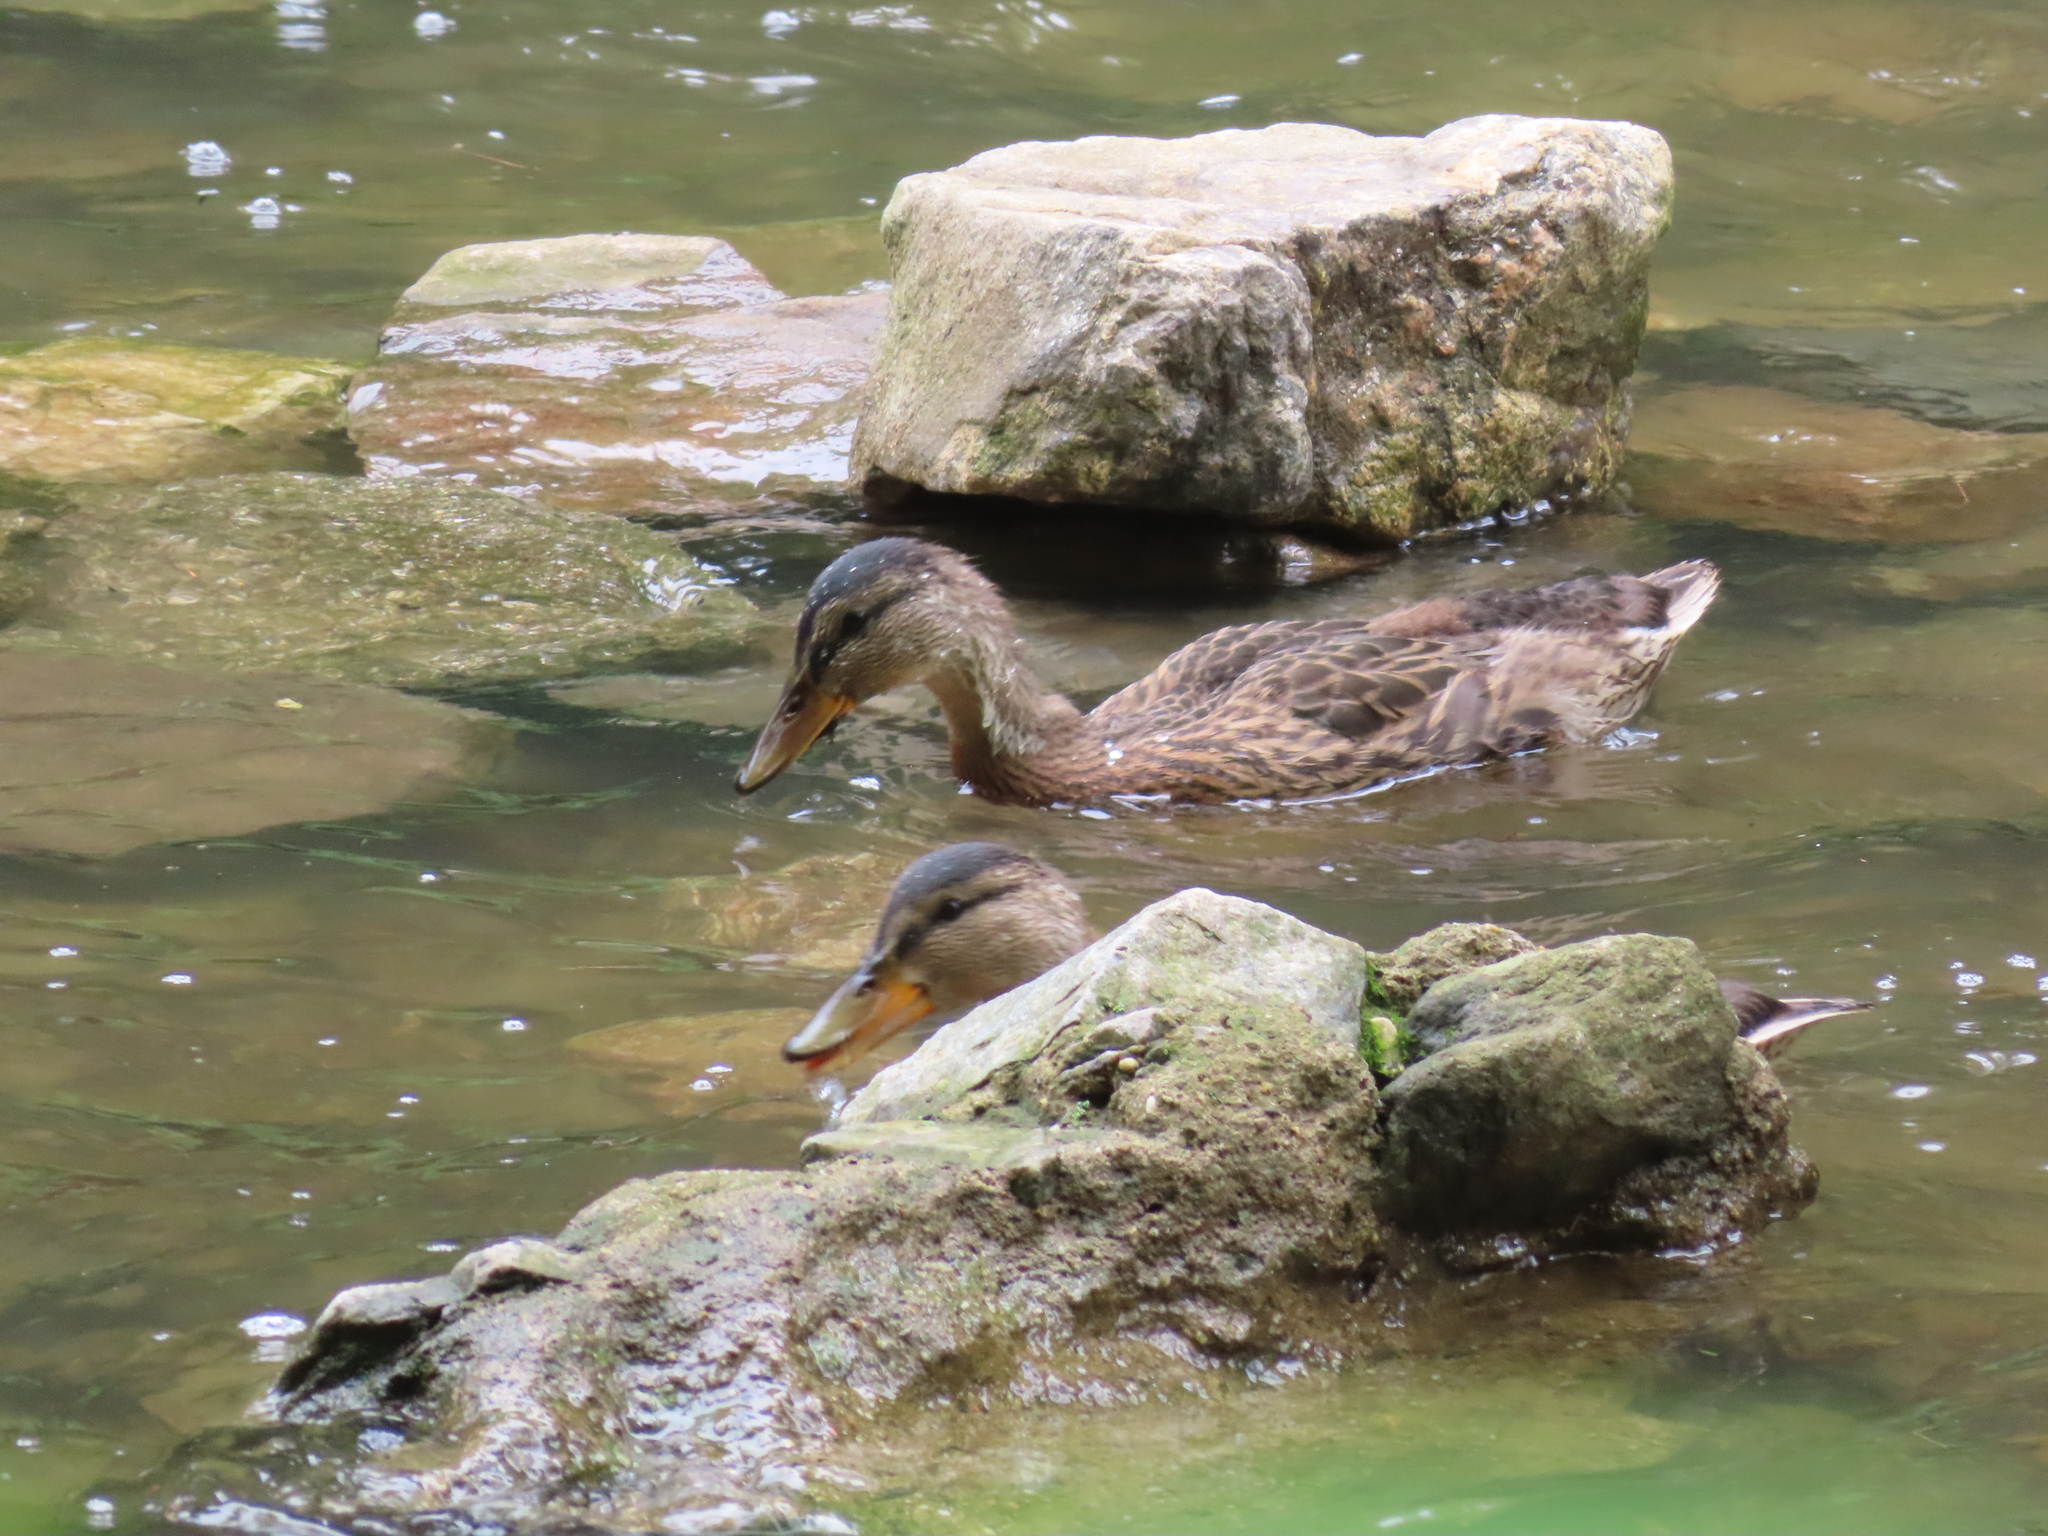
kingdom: Animalia
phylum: Chordata
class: Aves
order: Anseriformes
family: Anatidae
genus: Anas
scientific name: Anas platyrhynchos
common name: Mallard
